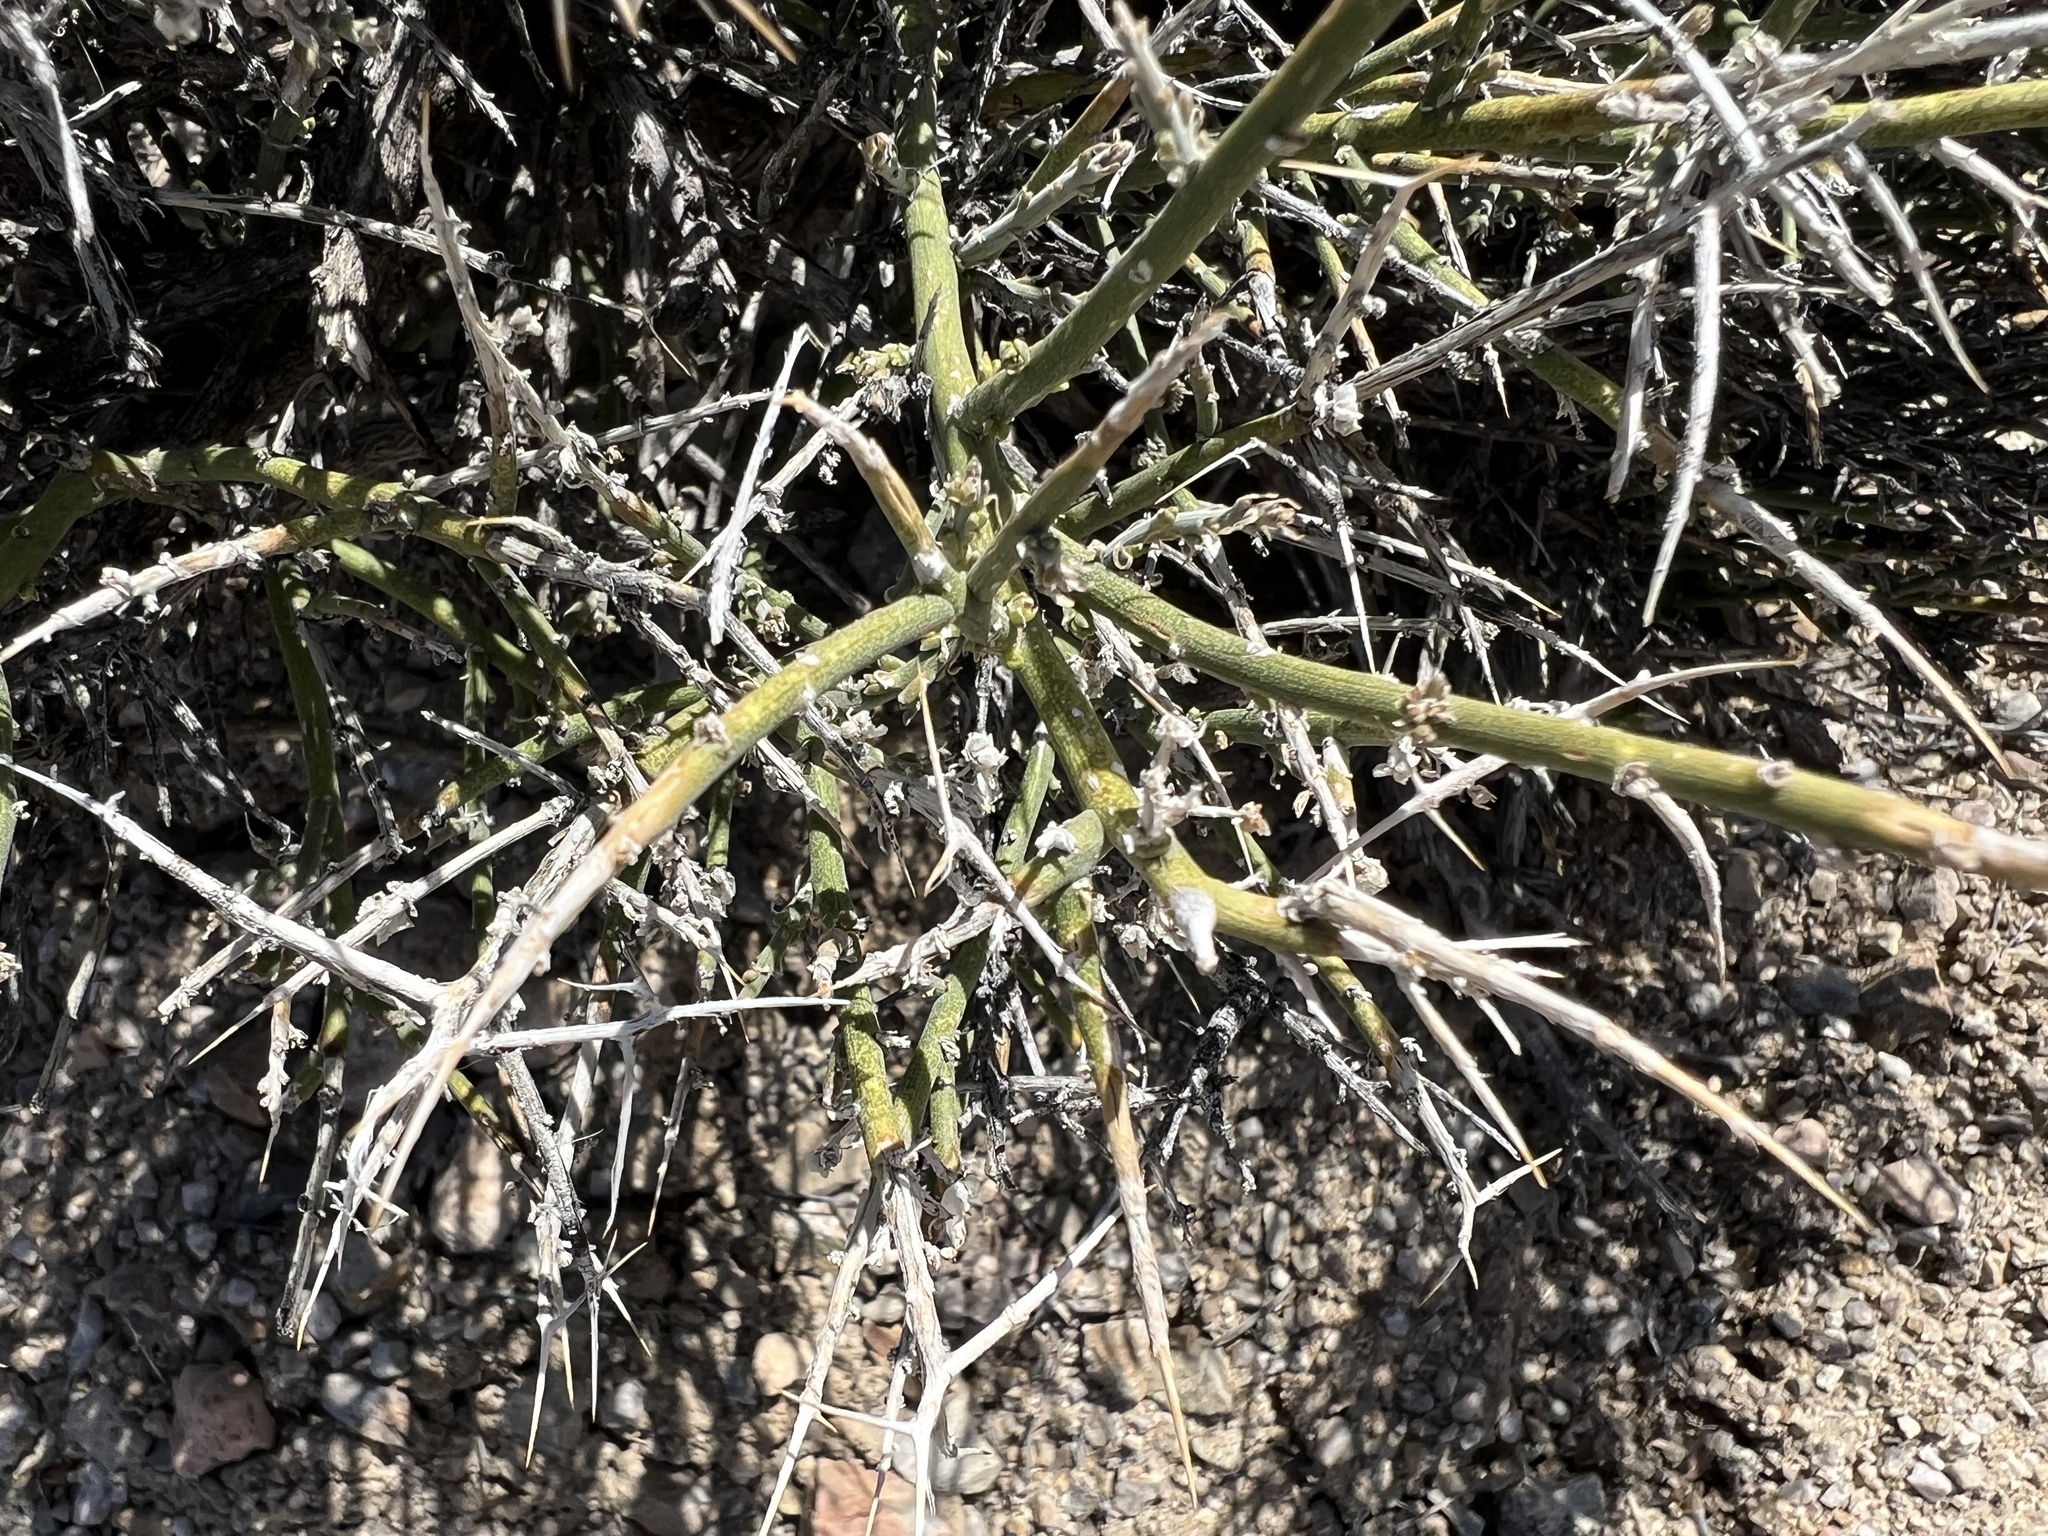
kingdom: Plantae
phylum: Tracheophyta
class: Magnoliopsida
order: Lamiales
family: Oleaceae
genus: Menodora
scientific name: Menodora spinescens
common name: Spiny menodora
